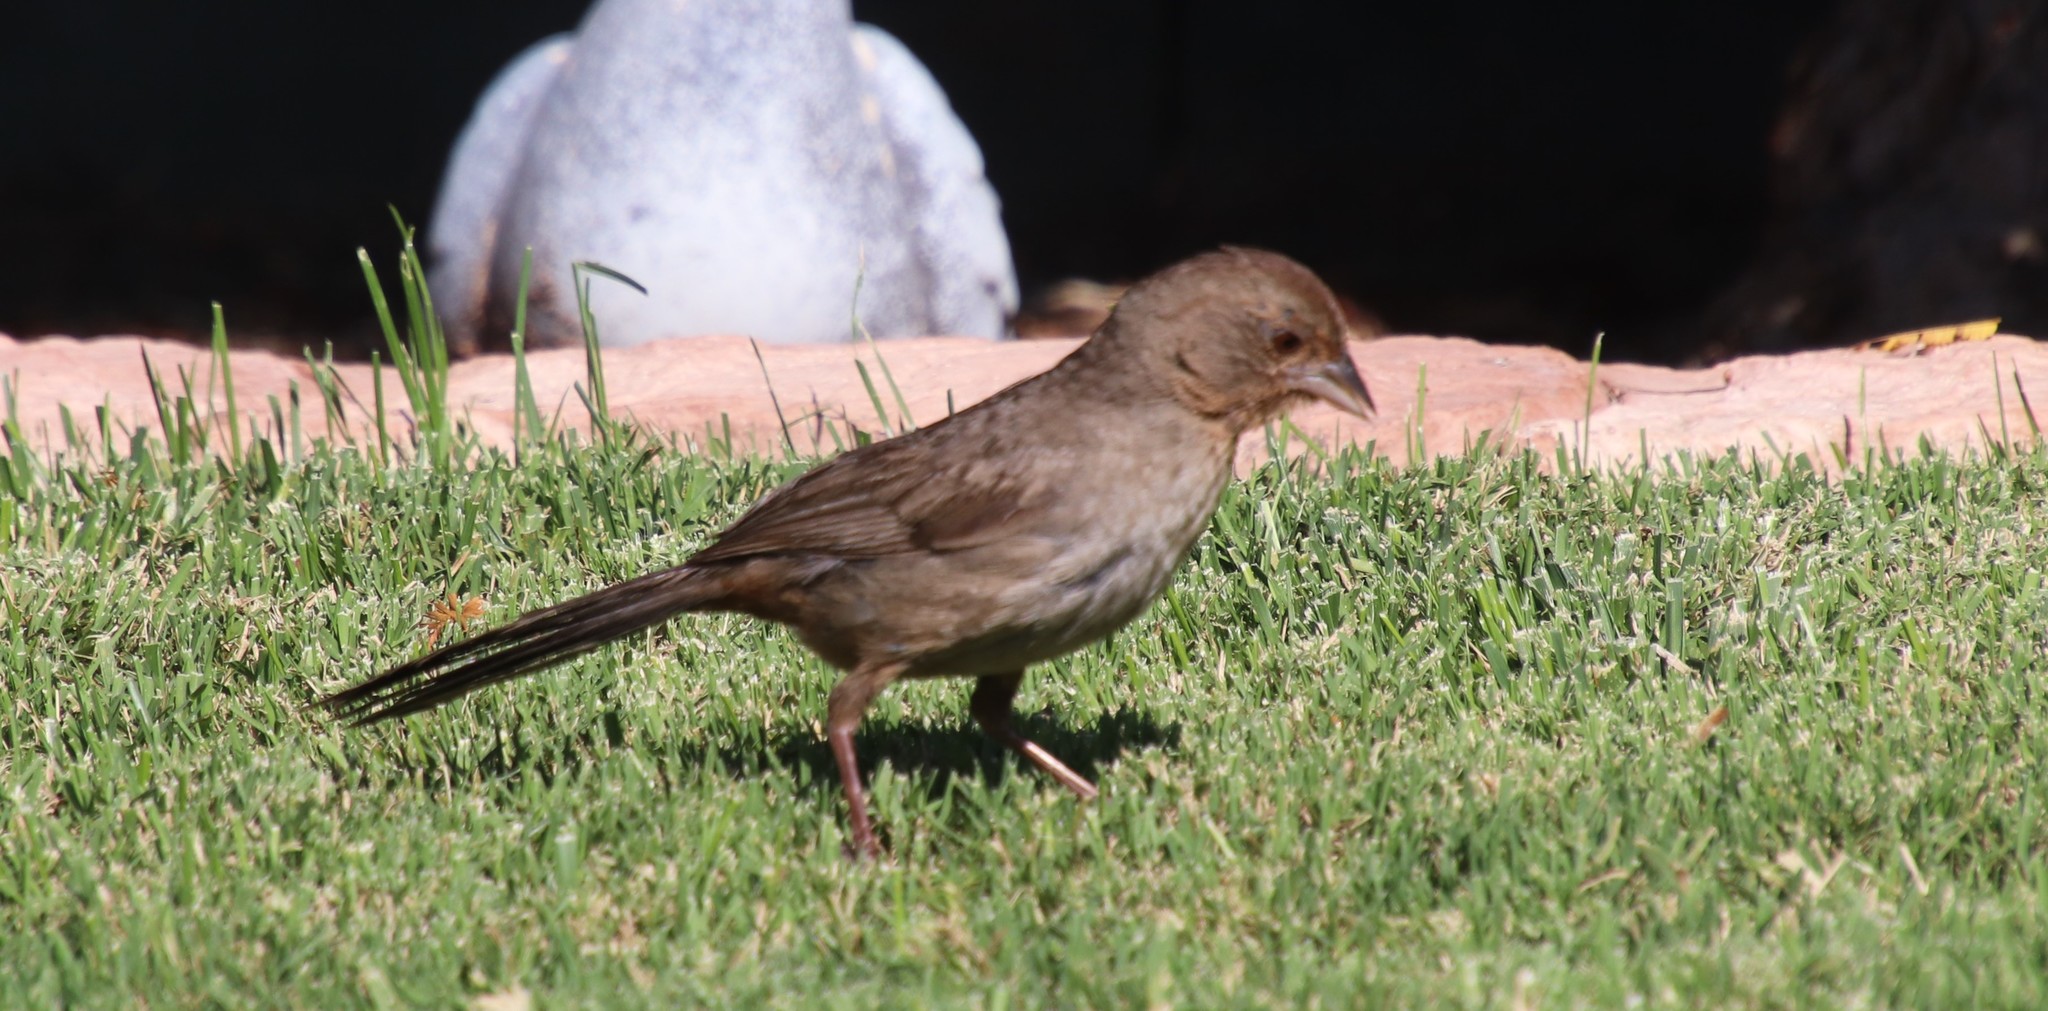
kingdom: Animalia
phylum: Chordata
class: Aves
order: Passeriformes
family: Passerellidae
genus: Melozone
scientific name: Melozone crissalis
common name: California towhee
